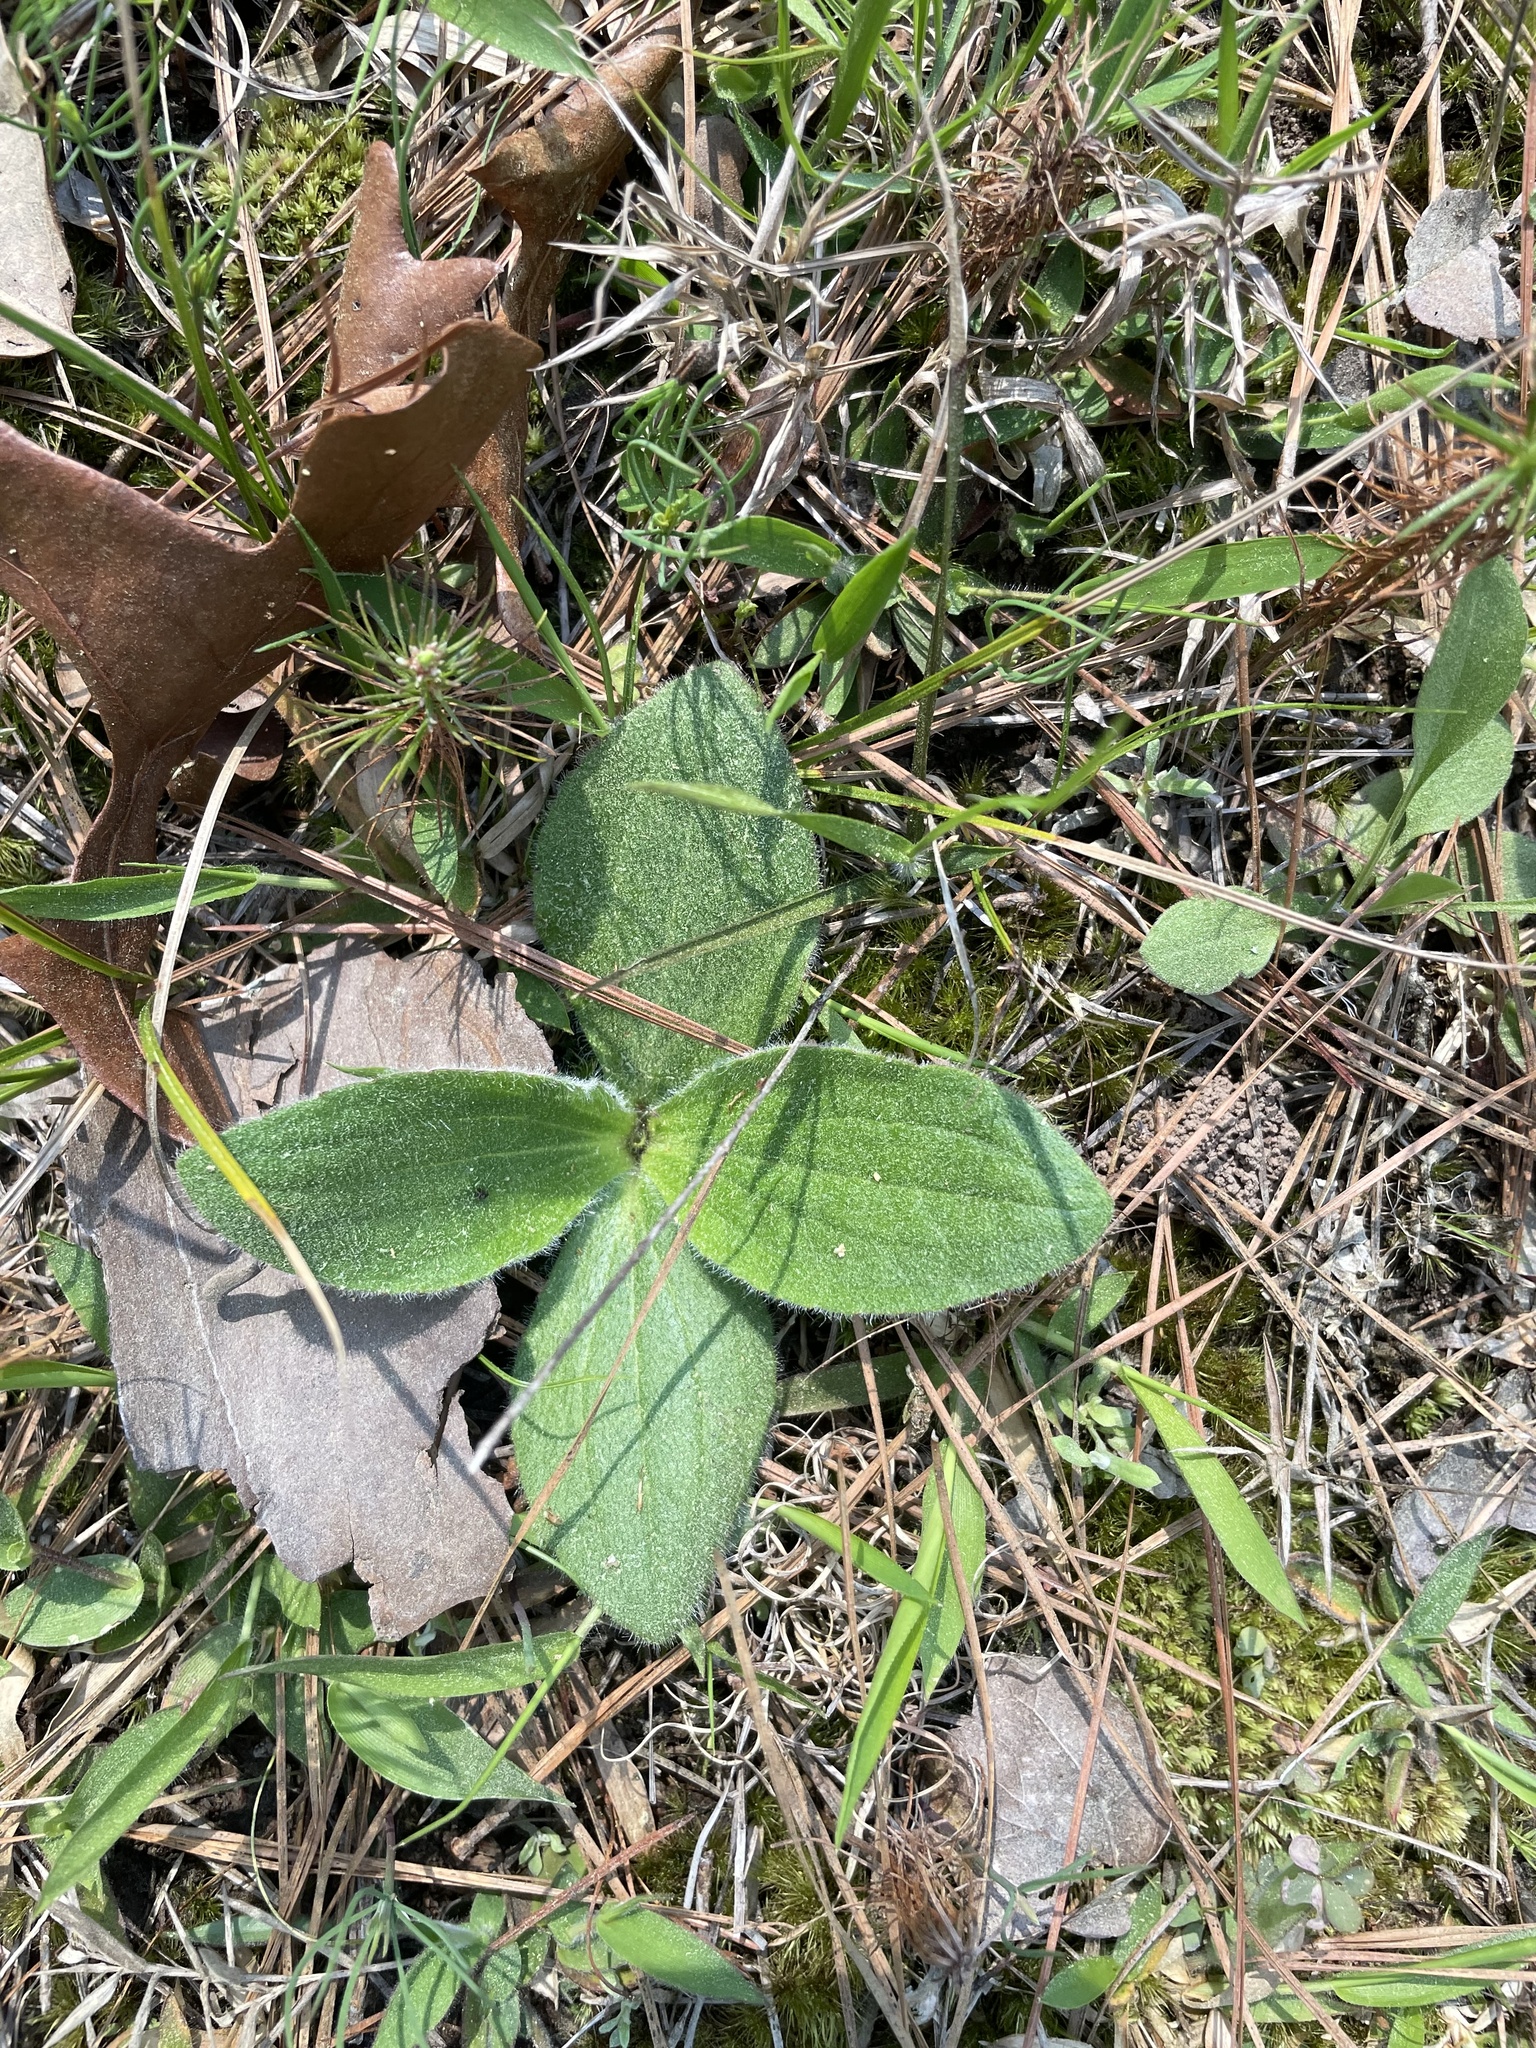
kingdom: Plantae
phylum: Tracheophyta
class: Magnoliopsida
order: Asterales
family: Asteraceae
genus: Arnica
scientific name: Arnica acaulis
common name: Common leopardbane
